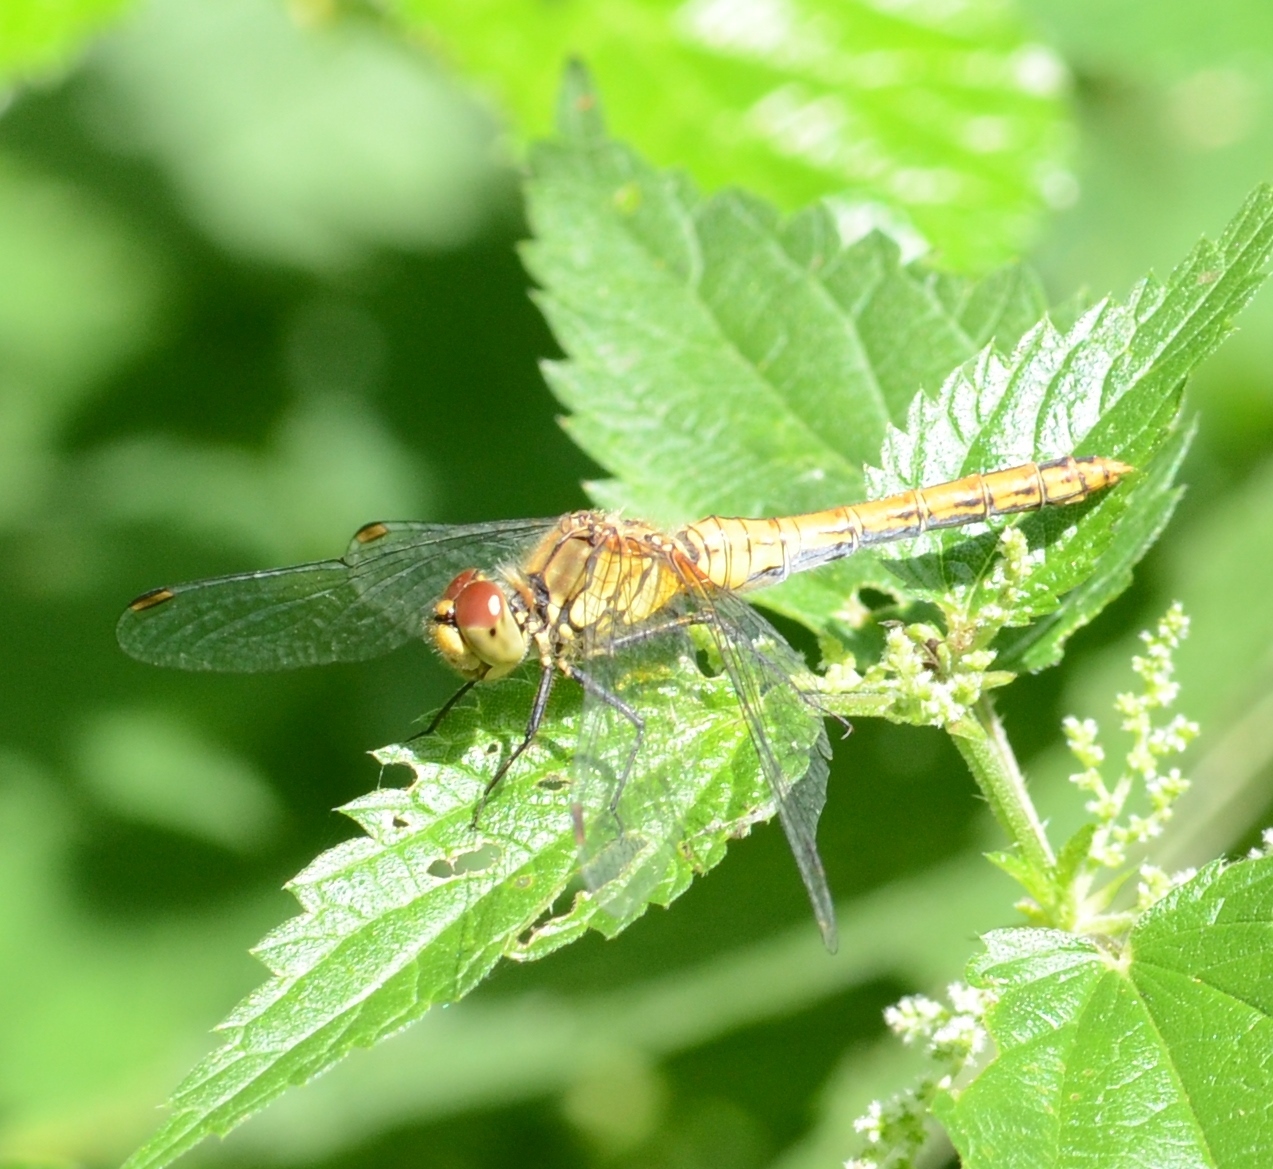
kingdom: Animalia
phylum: Arthropoda
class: Insecta
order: Odonata
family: Libellulidae
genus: Sympetrum
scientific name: Sympetrum sanguineum
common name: Ruddy darter
